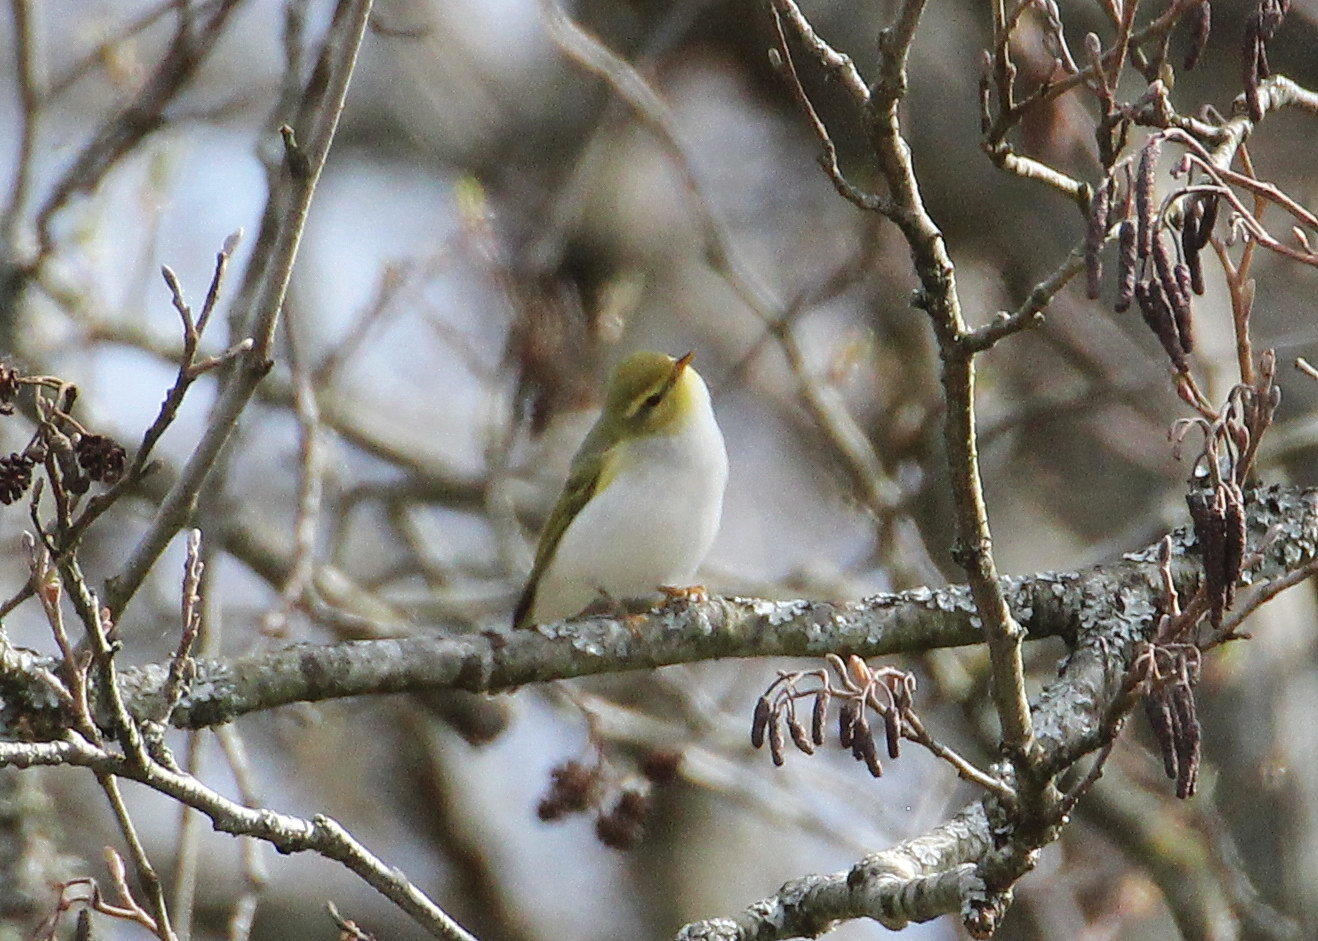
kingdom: Animalia
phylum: Chordata
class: Aves
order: Passeriformes
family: Phylloscopidae
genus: Phylloscopus
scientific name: Phylloscopus sibillatrix
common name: Wood warbler
